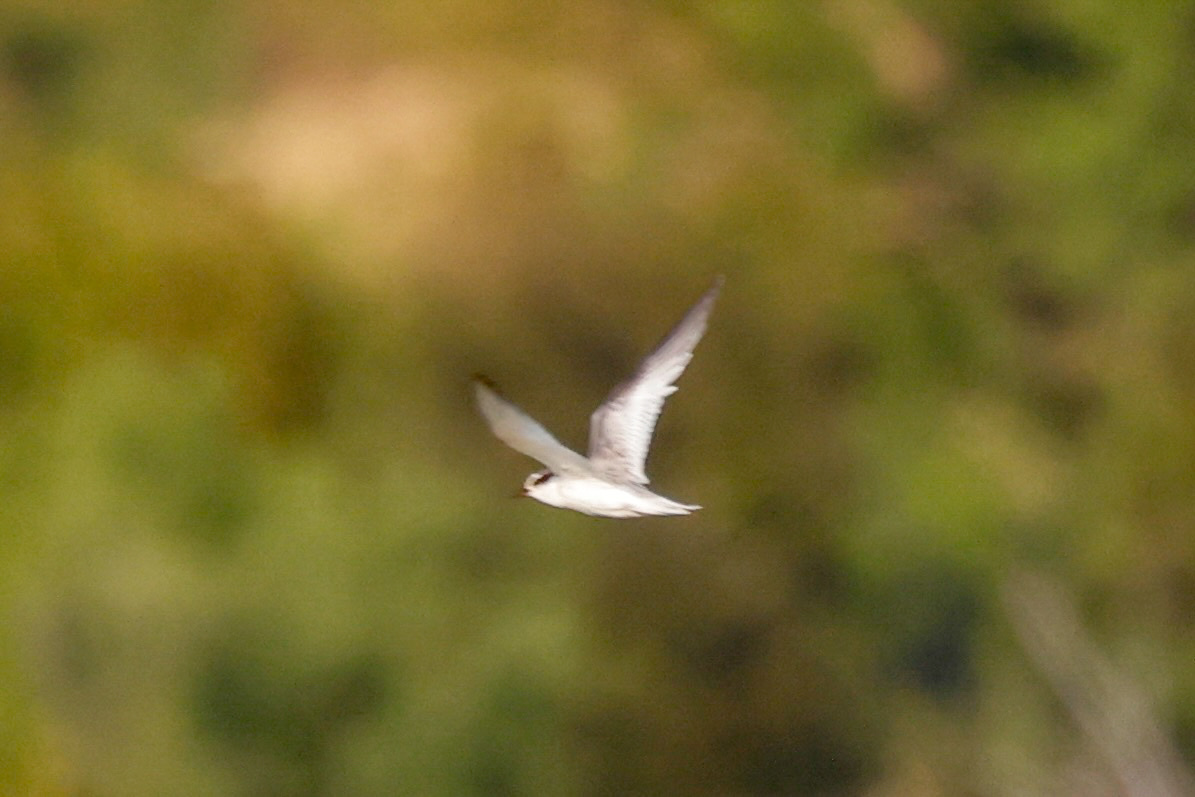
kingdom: Animalia
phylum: Chordata
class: Aves
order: Charadriiformes
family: Laridae
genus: Sternula
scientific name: Sternula antillarum
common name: Least tern
